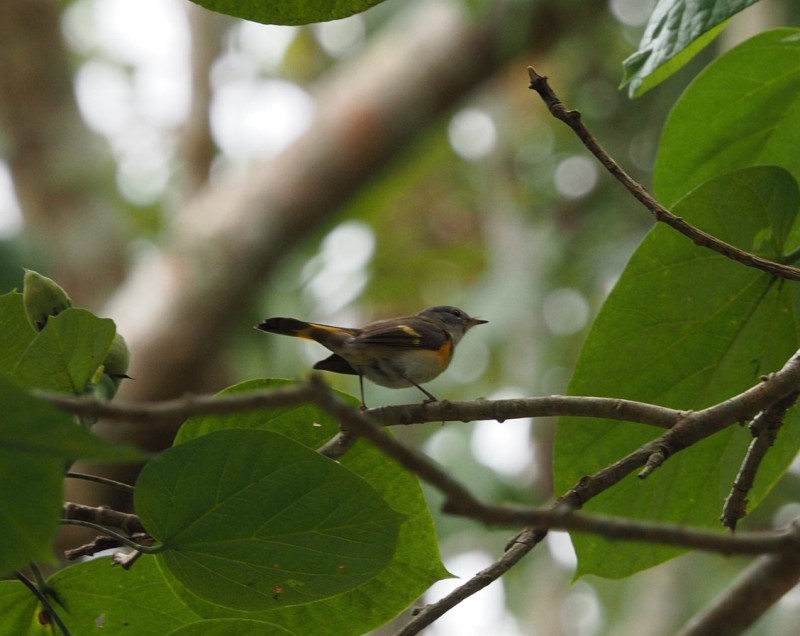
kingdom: Animalia
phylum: Chordata
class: Aves
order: Passeriformes
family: Parulidae
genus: Setophaga
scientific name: Setophaga ruticilla
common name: American redstart
